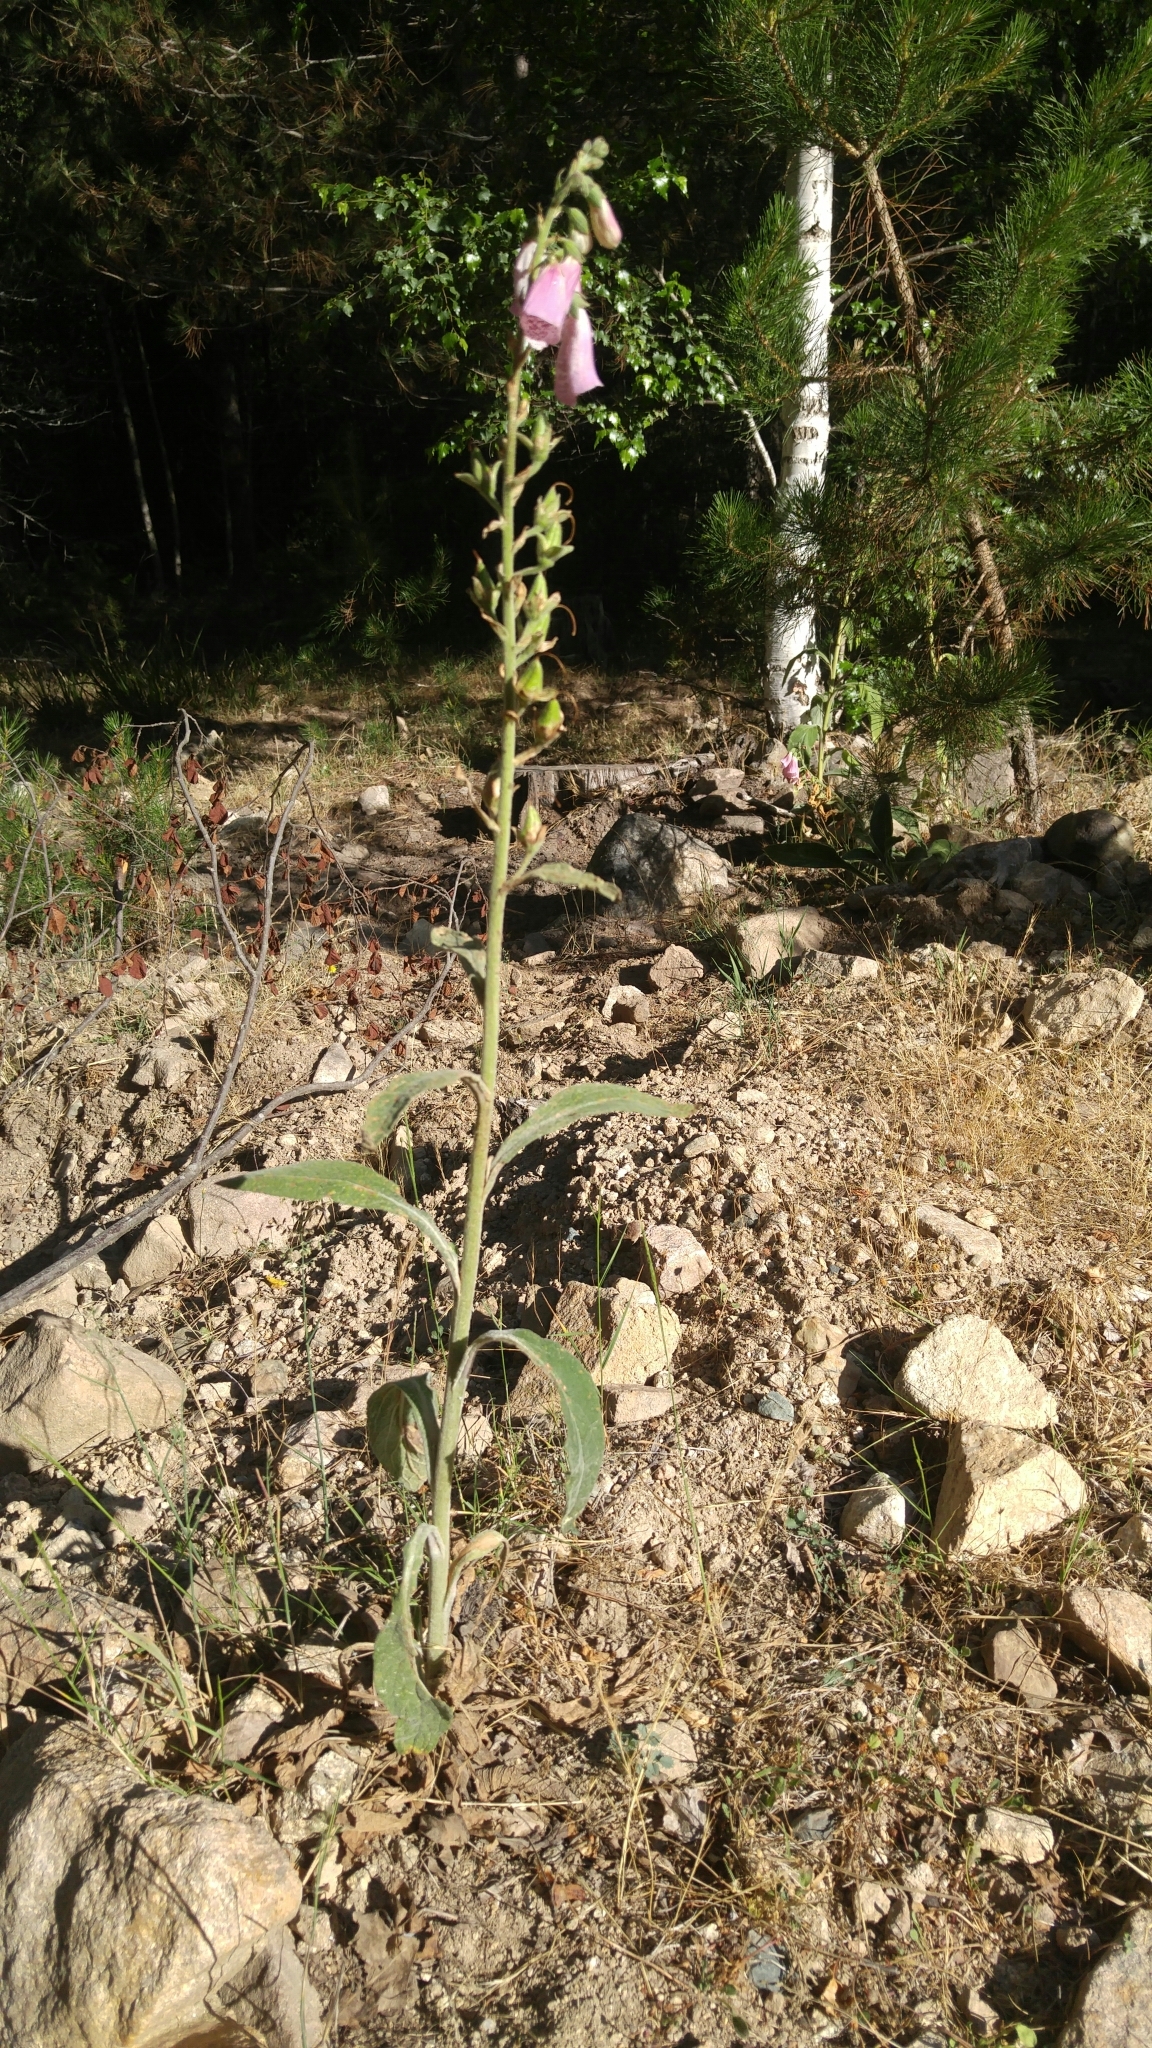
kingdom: Plantae
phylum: Tracheophyta
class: Magnoliopsida
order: Lamiales
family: Plantaginaceae
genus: Digitalis
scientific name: Digitalis purpurea
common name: Foxglove
